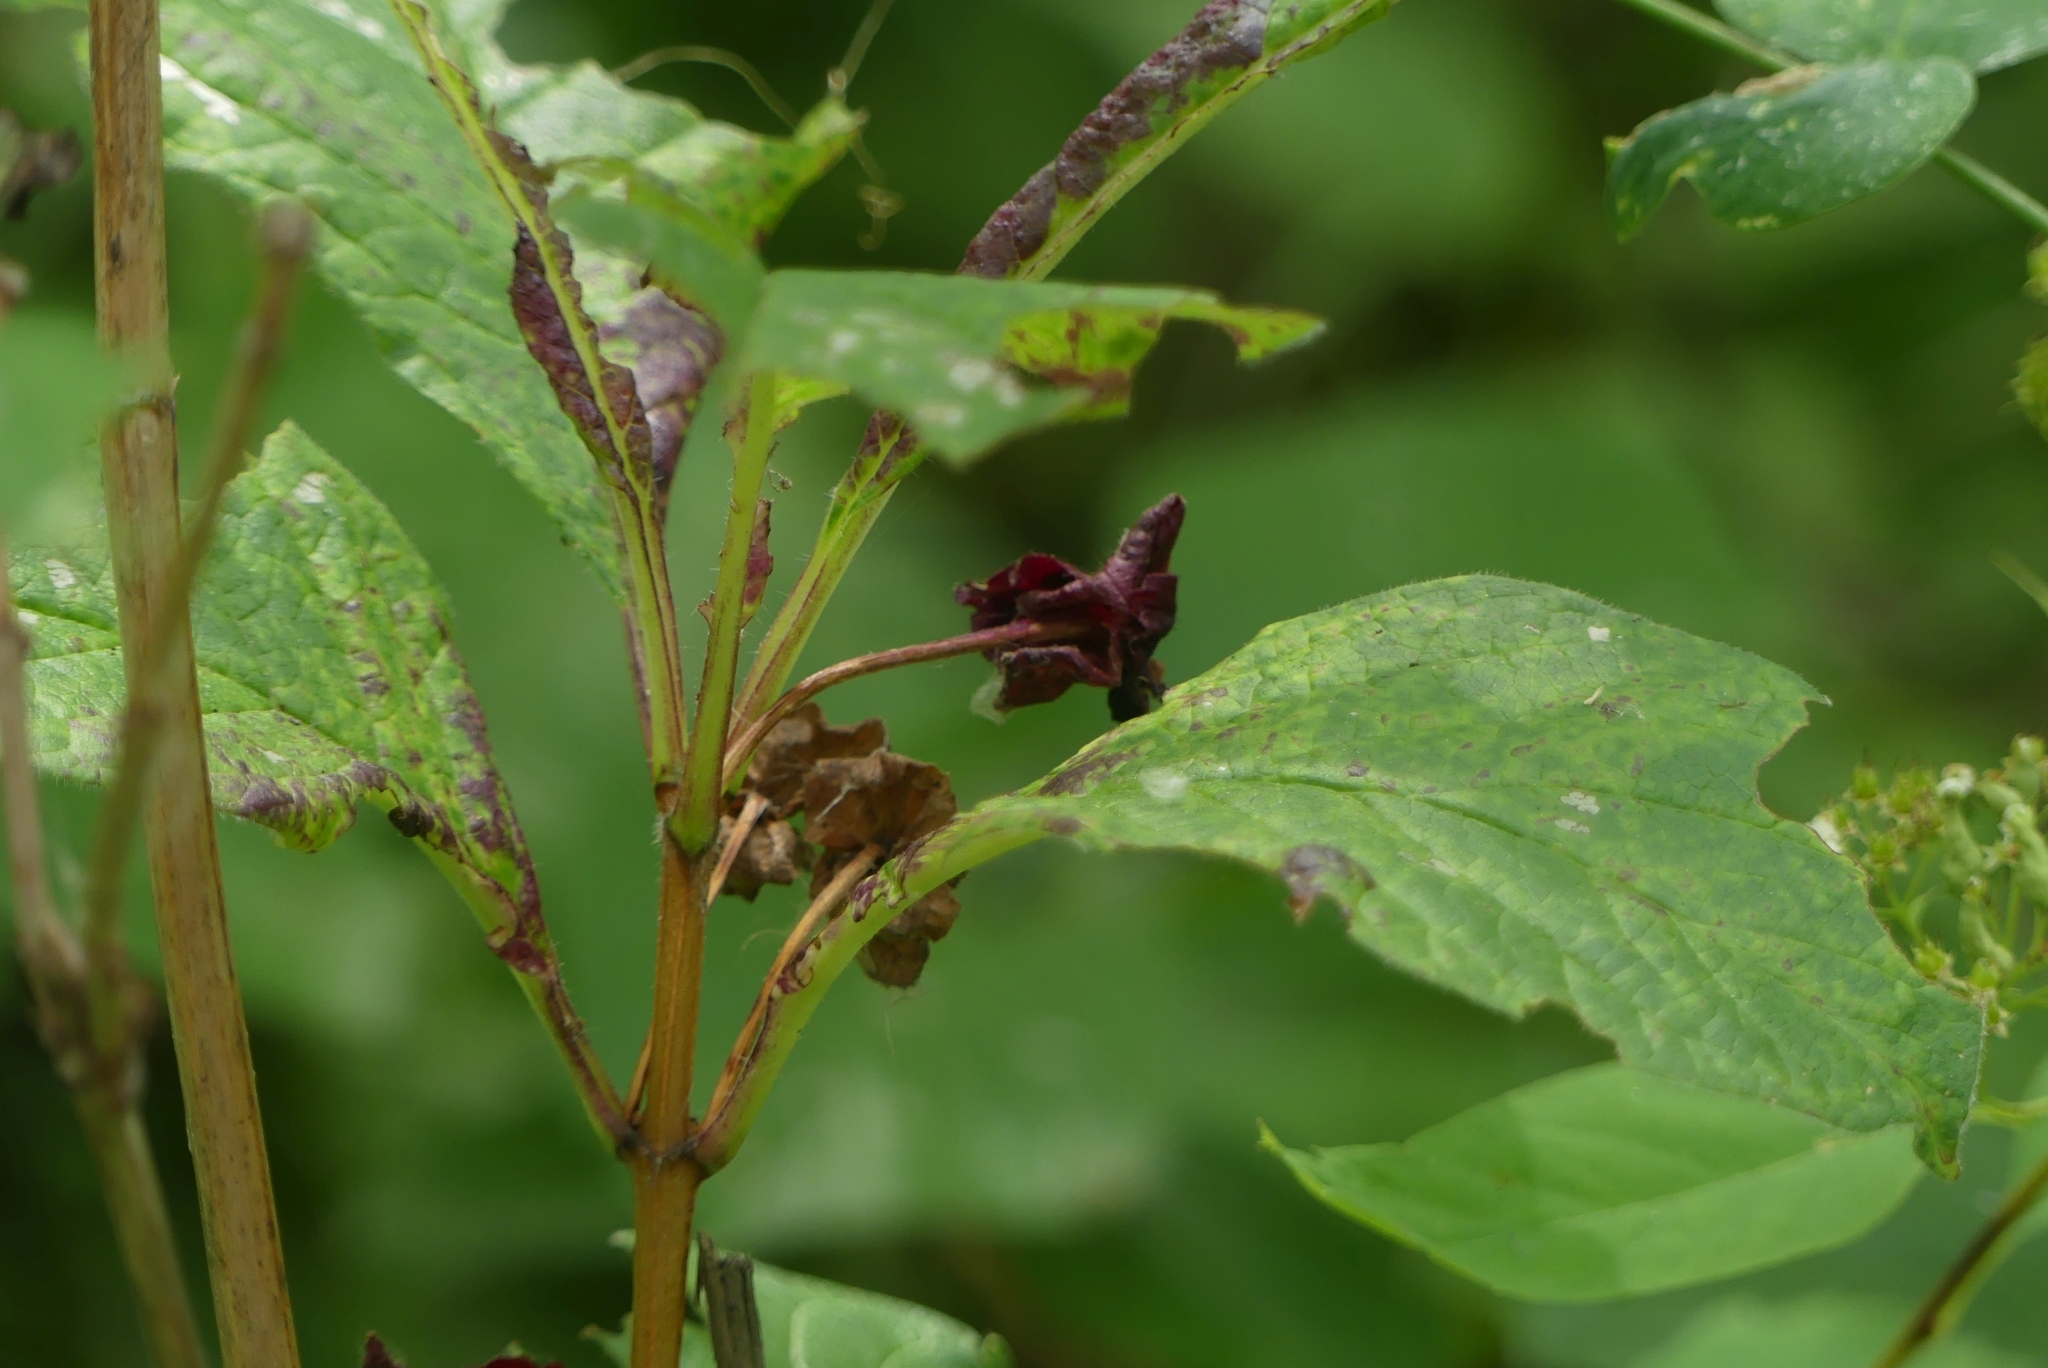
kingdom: Plantae
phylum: Tracheophyta
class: Magnoliopsida
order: Dipsacales
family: Caprifoliaceae
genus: Lonicera
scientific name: Lonicera involucrata
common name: Californian honeysuckle
